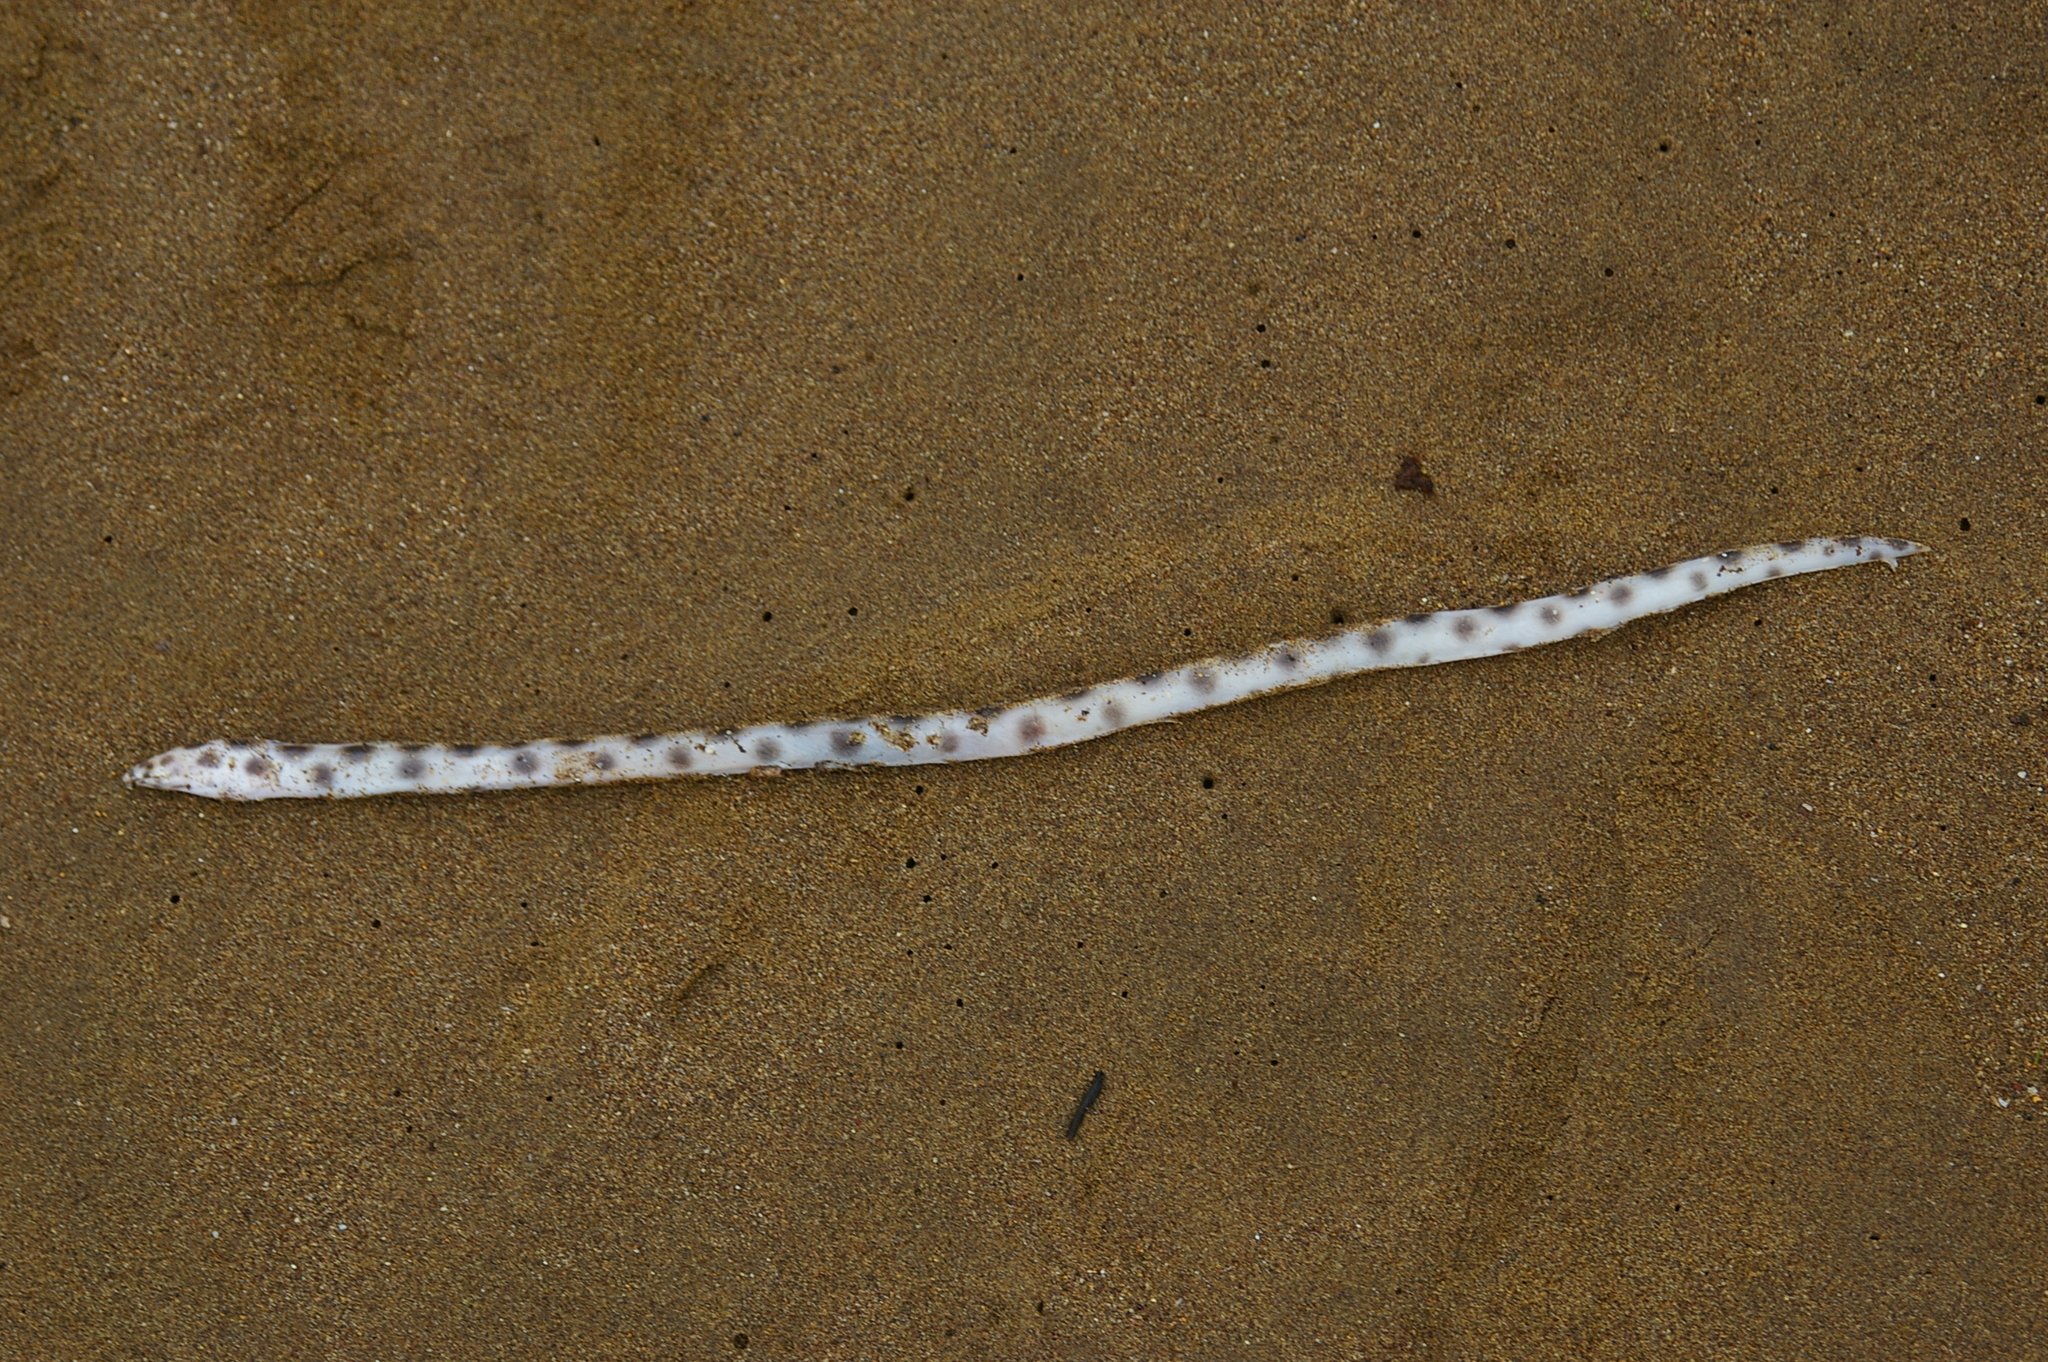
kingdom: Animalia
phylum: Chordata
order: Anguilliformes
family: Ophichthidae
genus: Myrichthys
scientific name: Myrichthys xysturus
